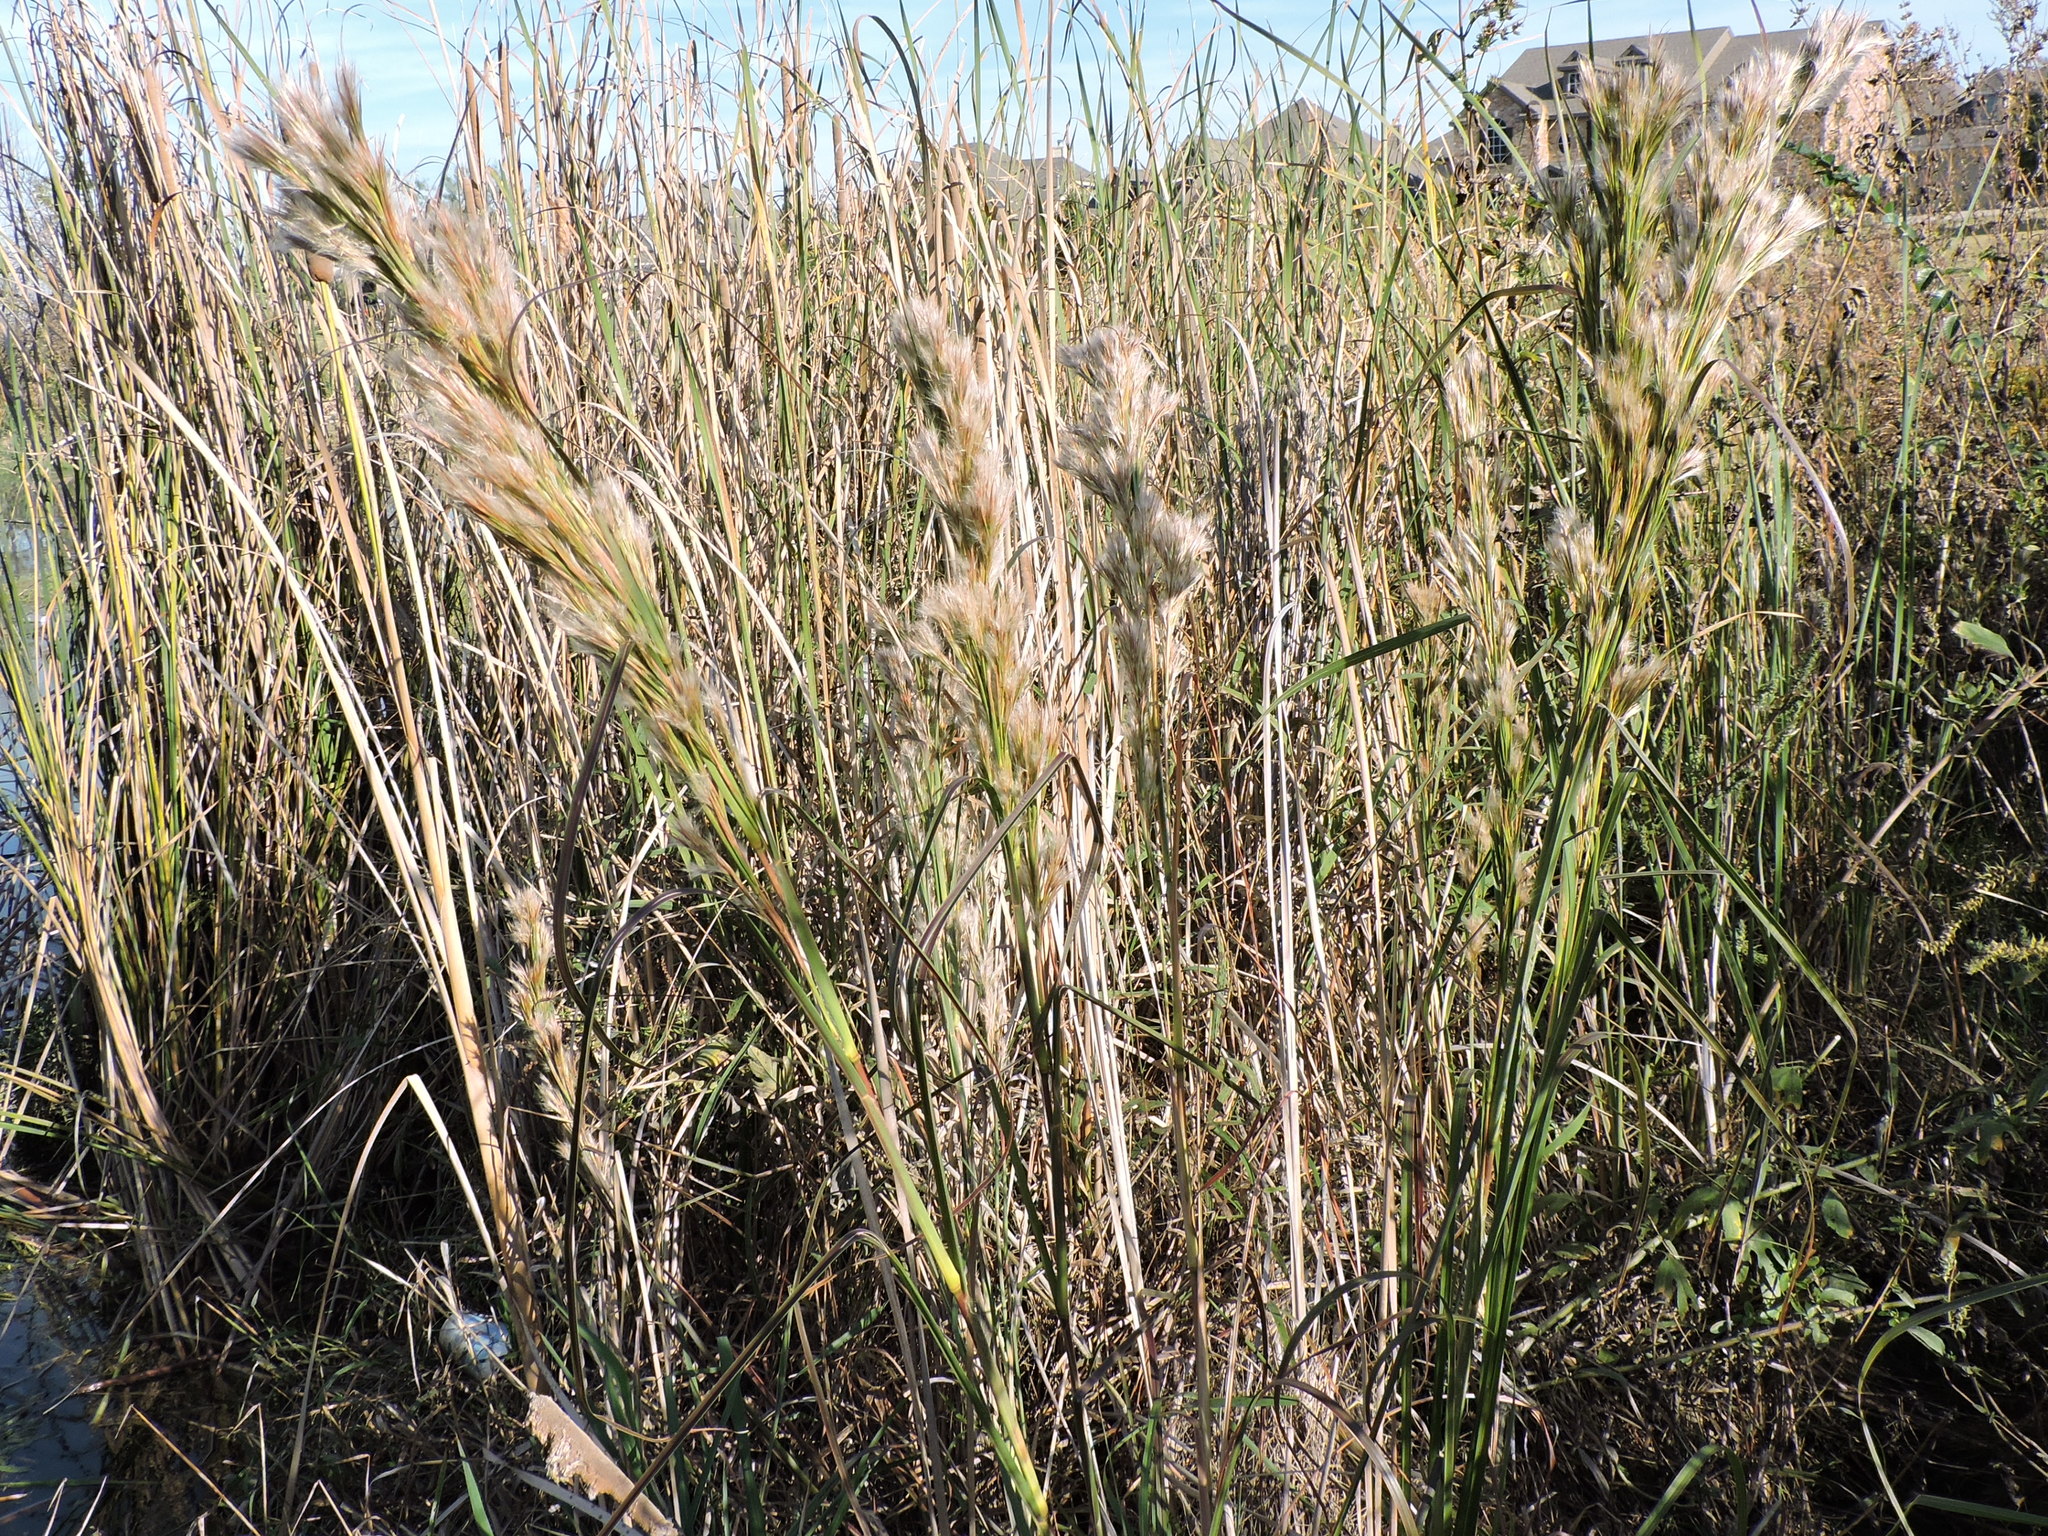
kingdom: Plantae
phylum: Tracheophyta
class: Liliopsida
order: Poales
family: Poaceae
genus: Andropogon
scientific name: Andropogon tenuispatheus
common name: Bushy bluestem
